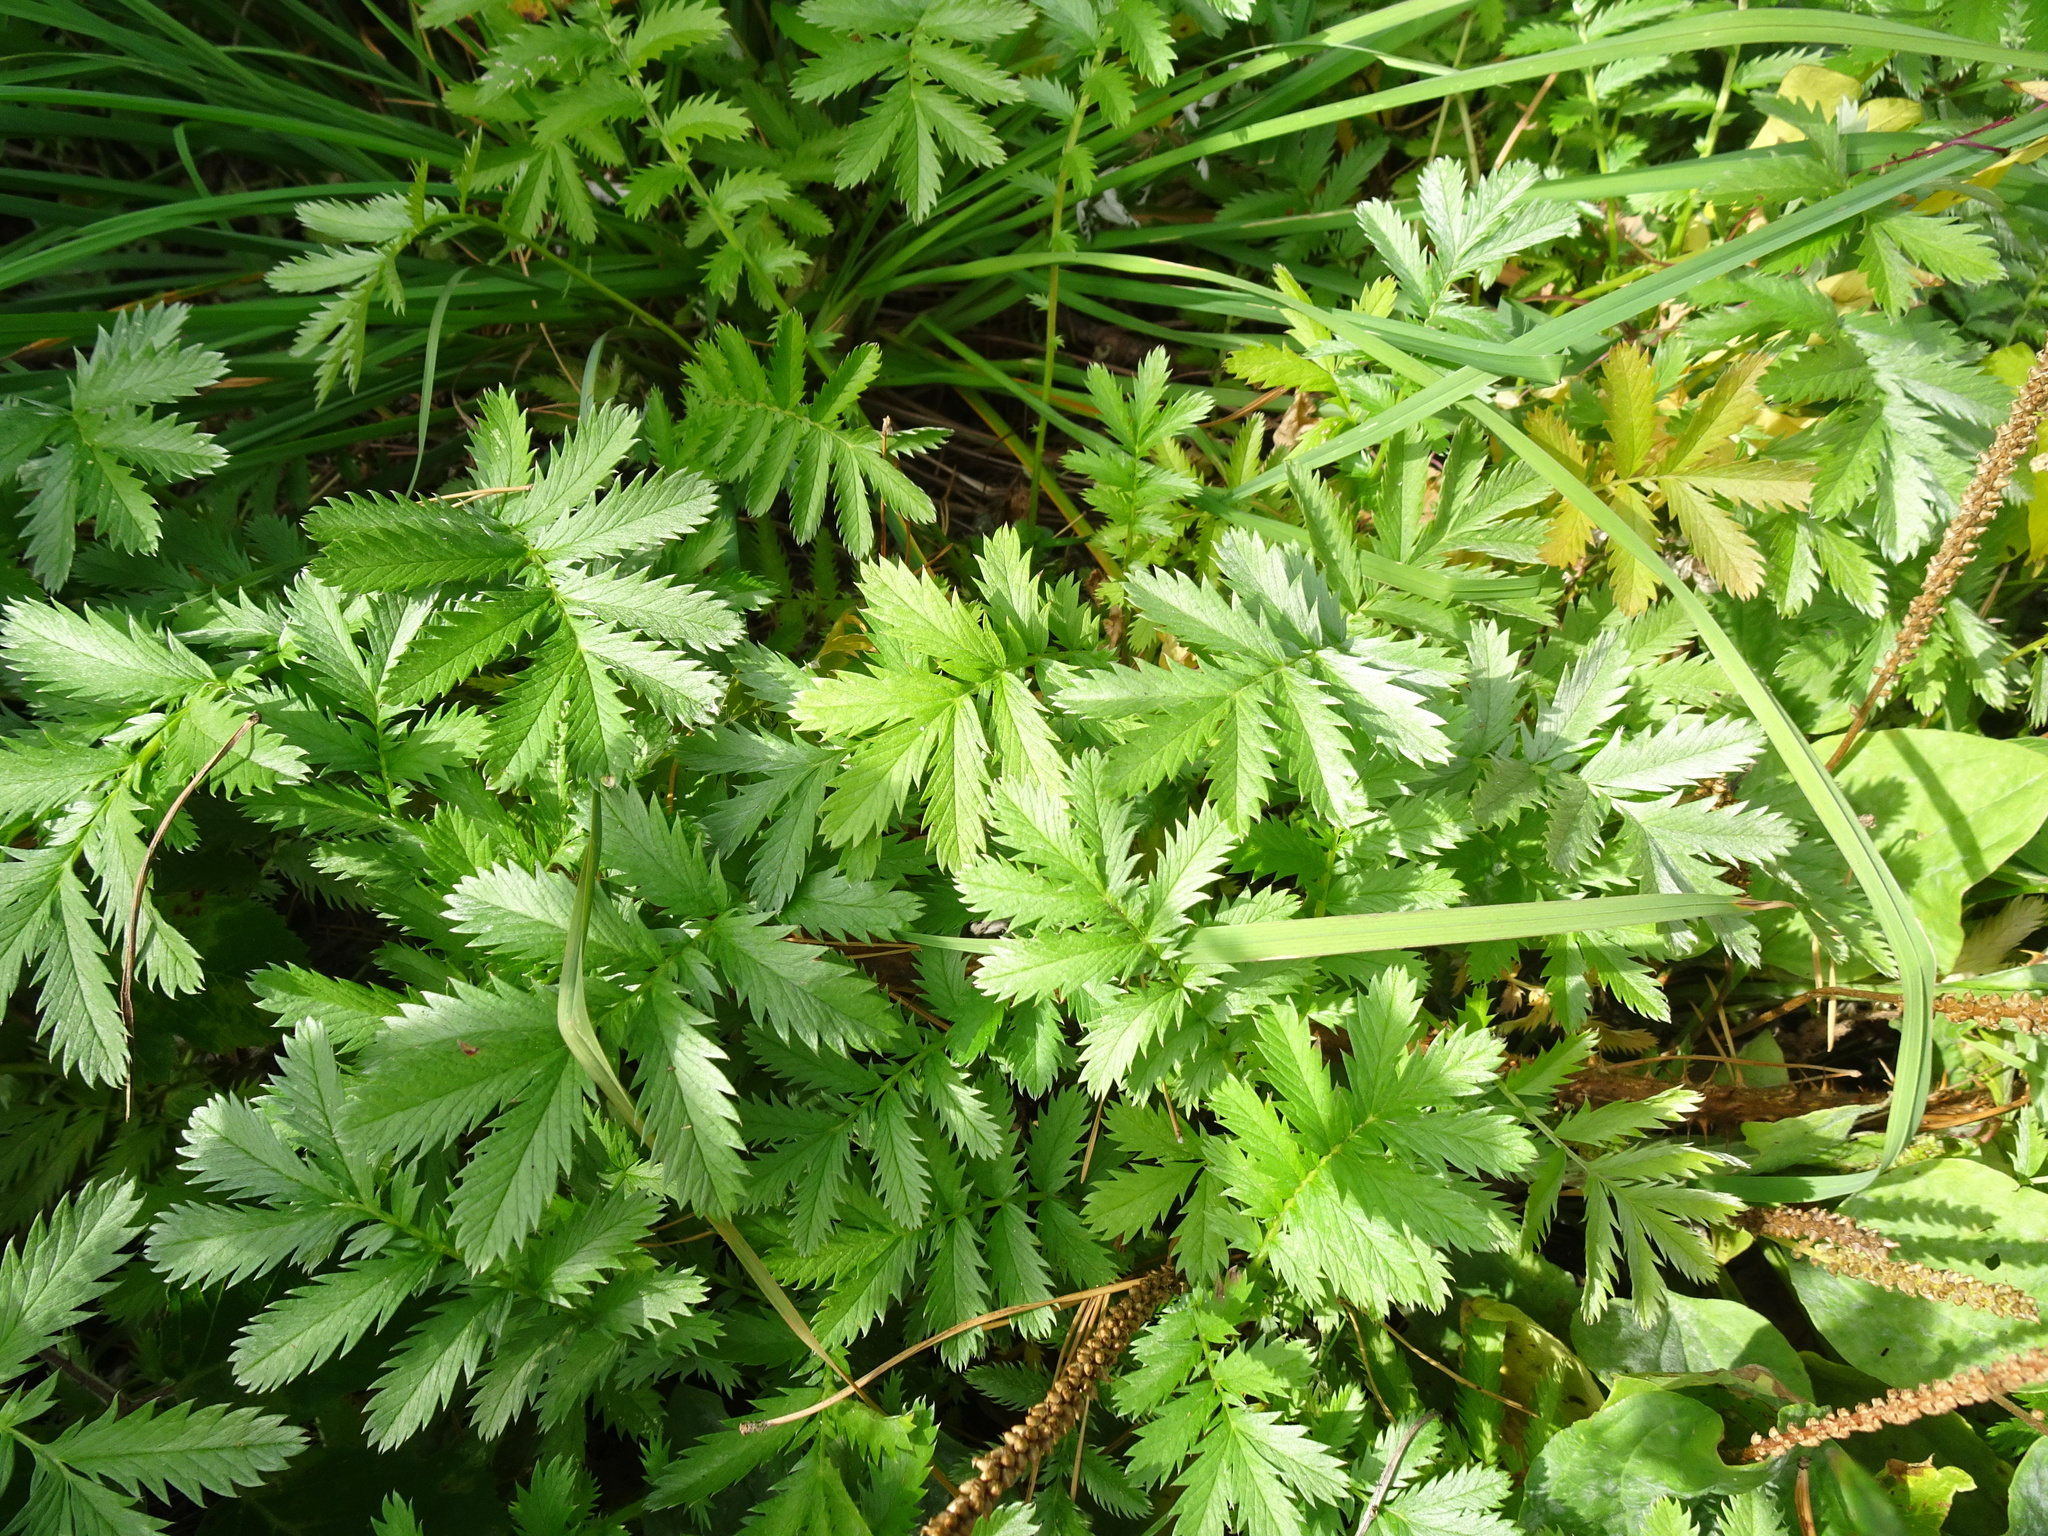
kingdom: Plantae
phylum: Tracheophyta
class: Magnoliopsida
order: Rosales
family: Rosaceae
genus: Argentina
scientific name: Argentina anserina
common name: Common silverweed
